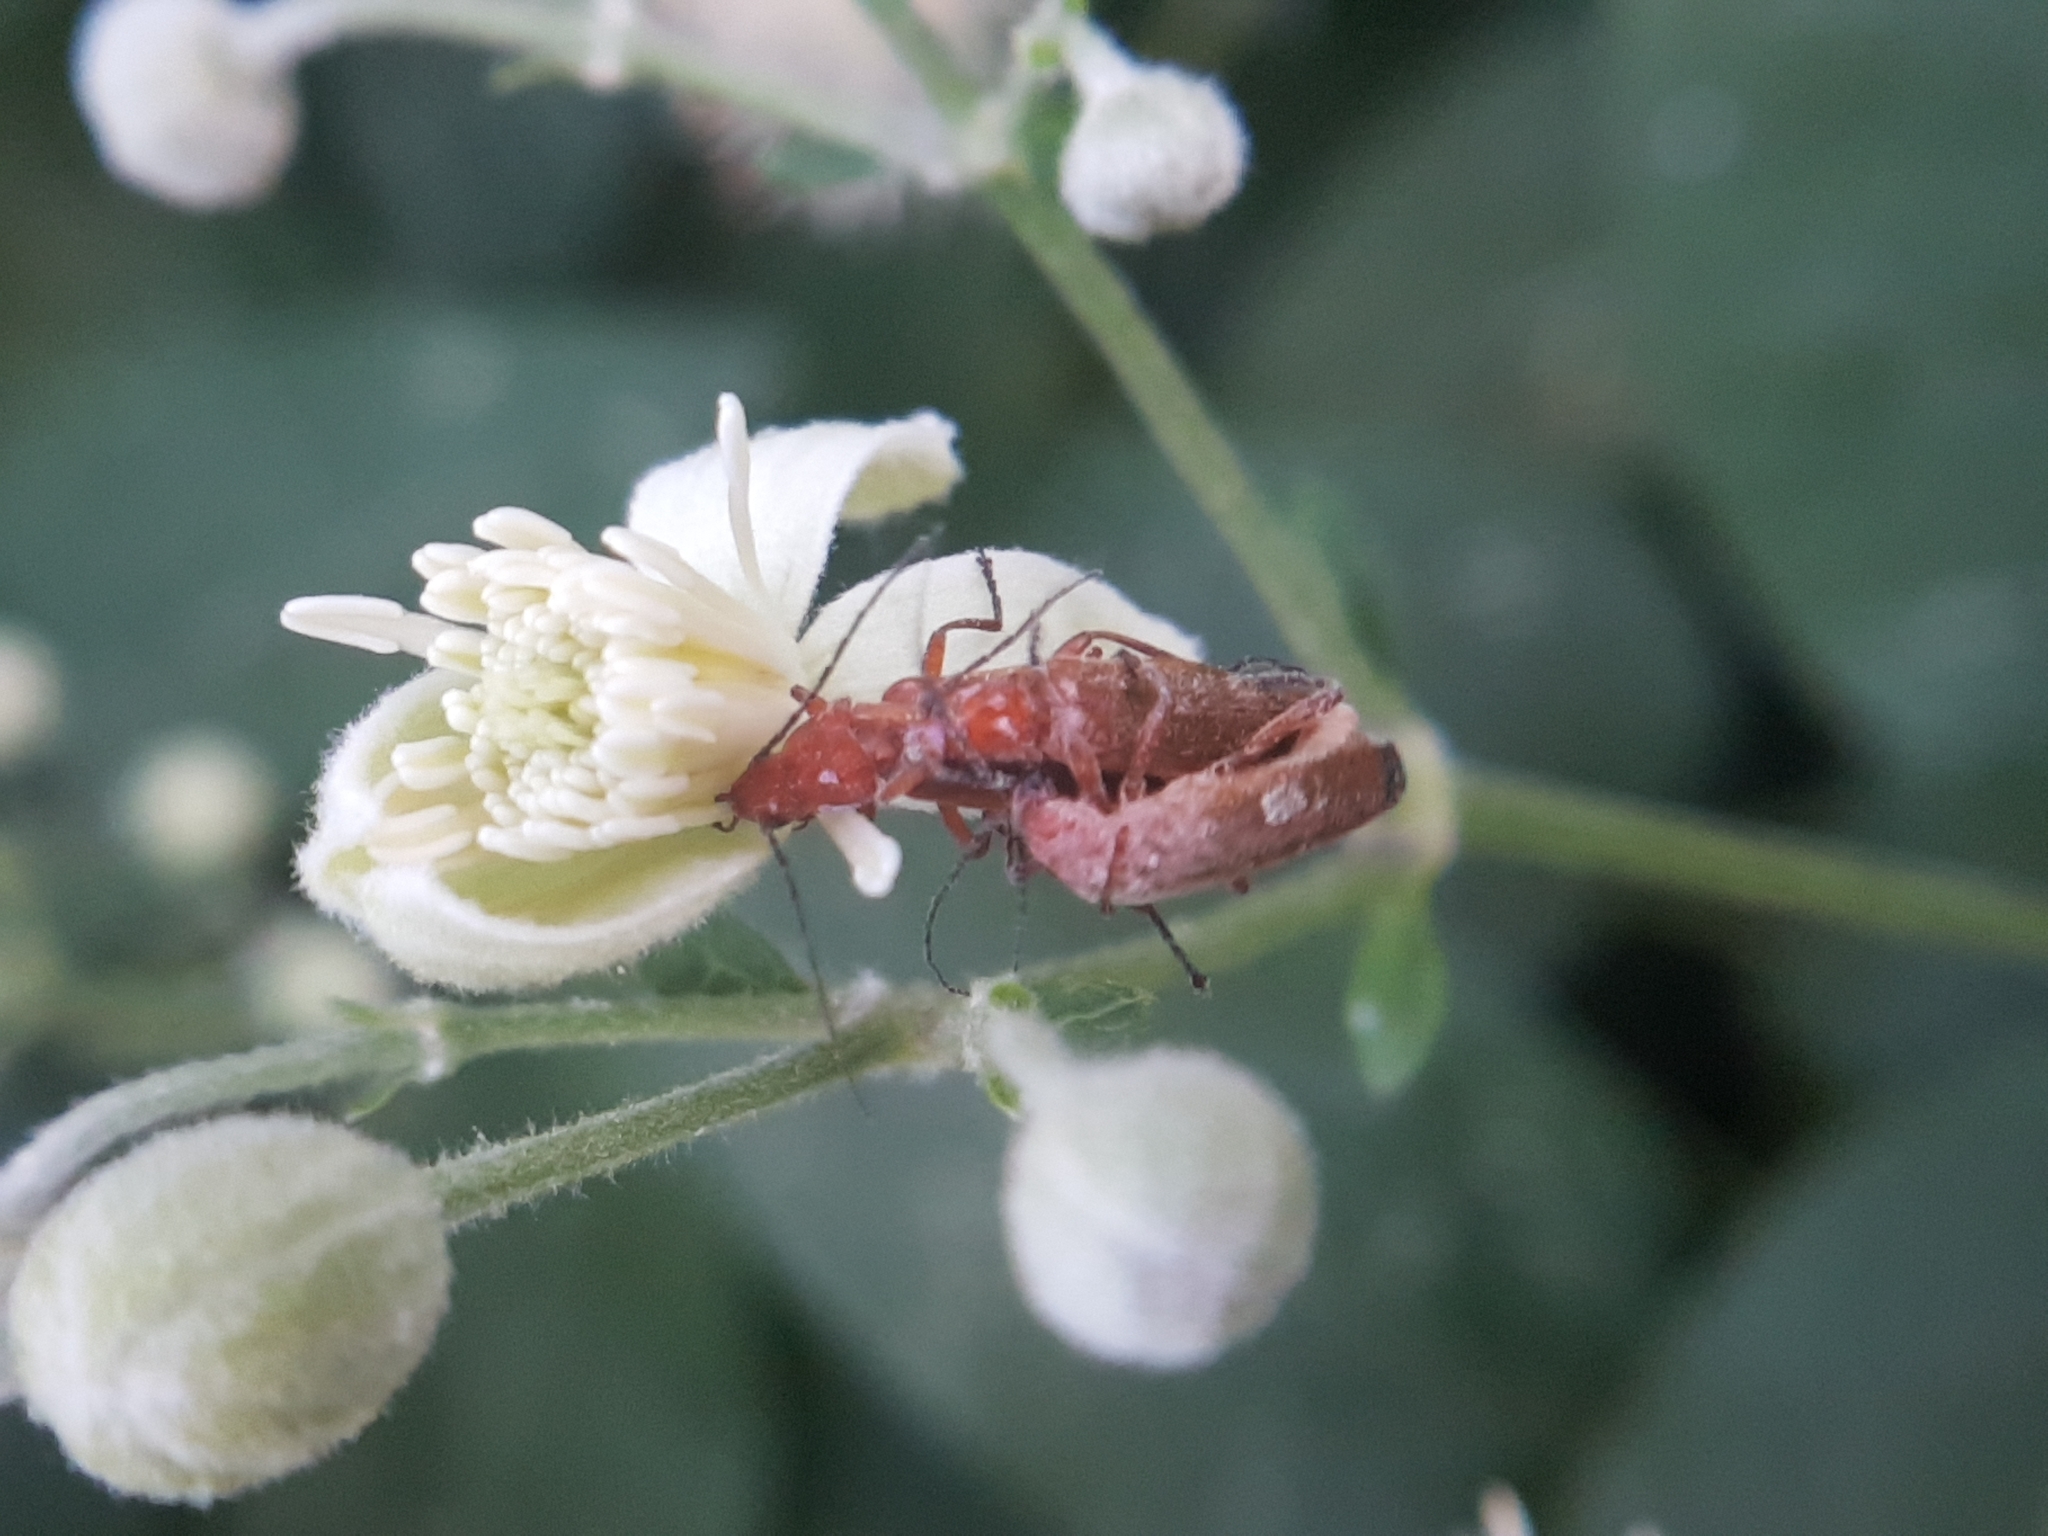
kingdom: Animalia
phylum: Arthropoda
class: Insecta
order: Coleoptera
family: Cantharidae
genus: Rhagonycha
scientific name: Rhagonycha fulva
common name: Common red soldier beetle
